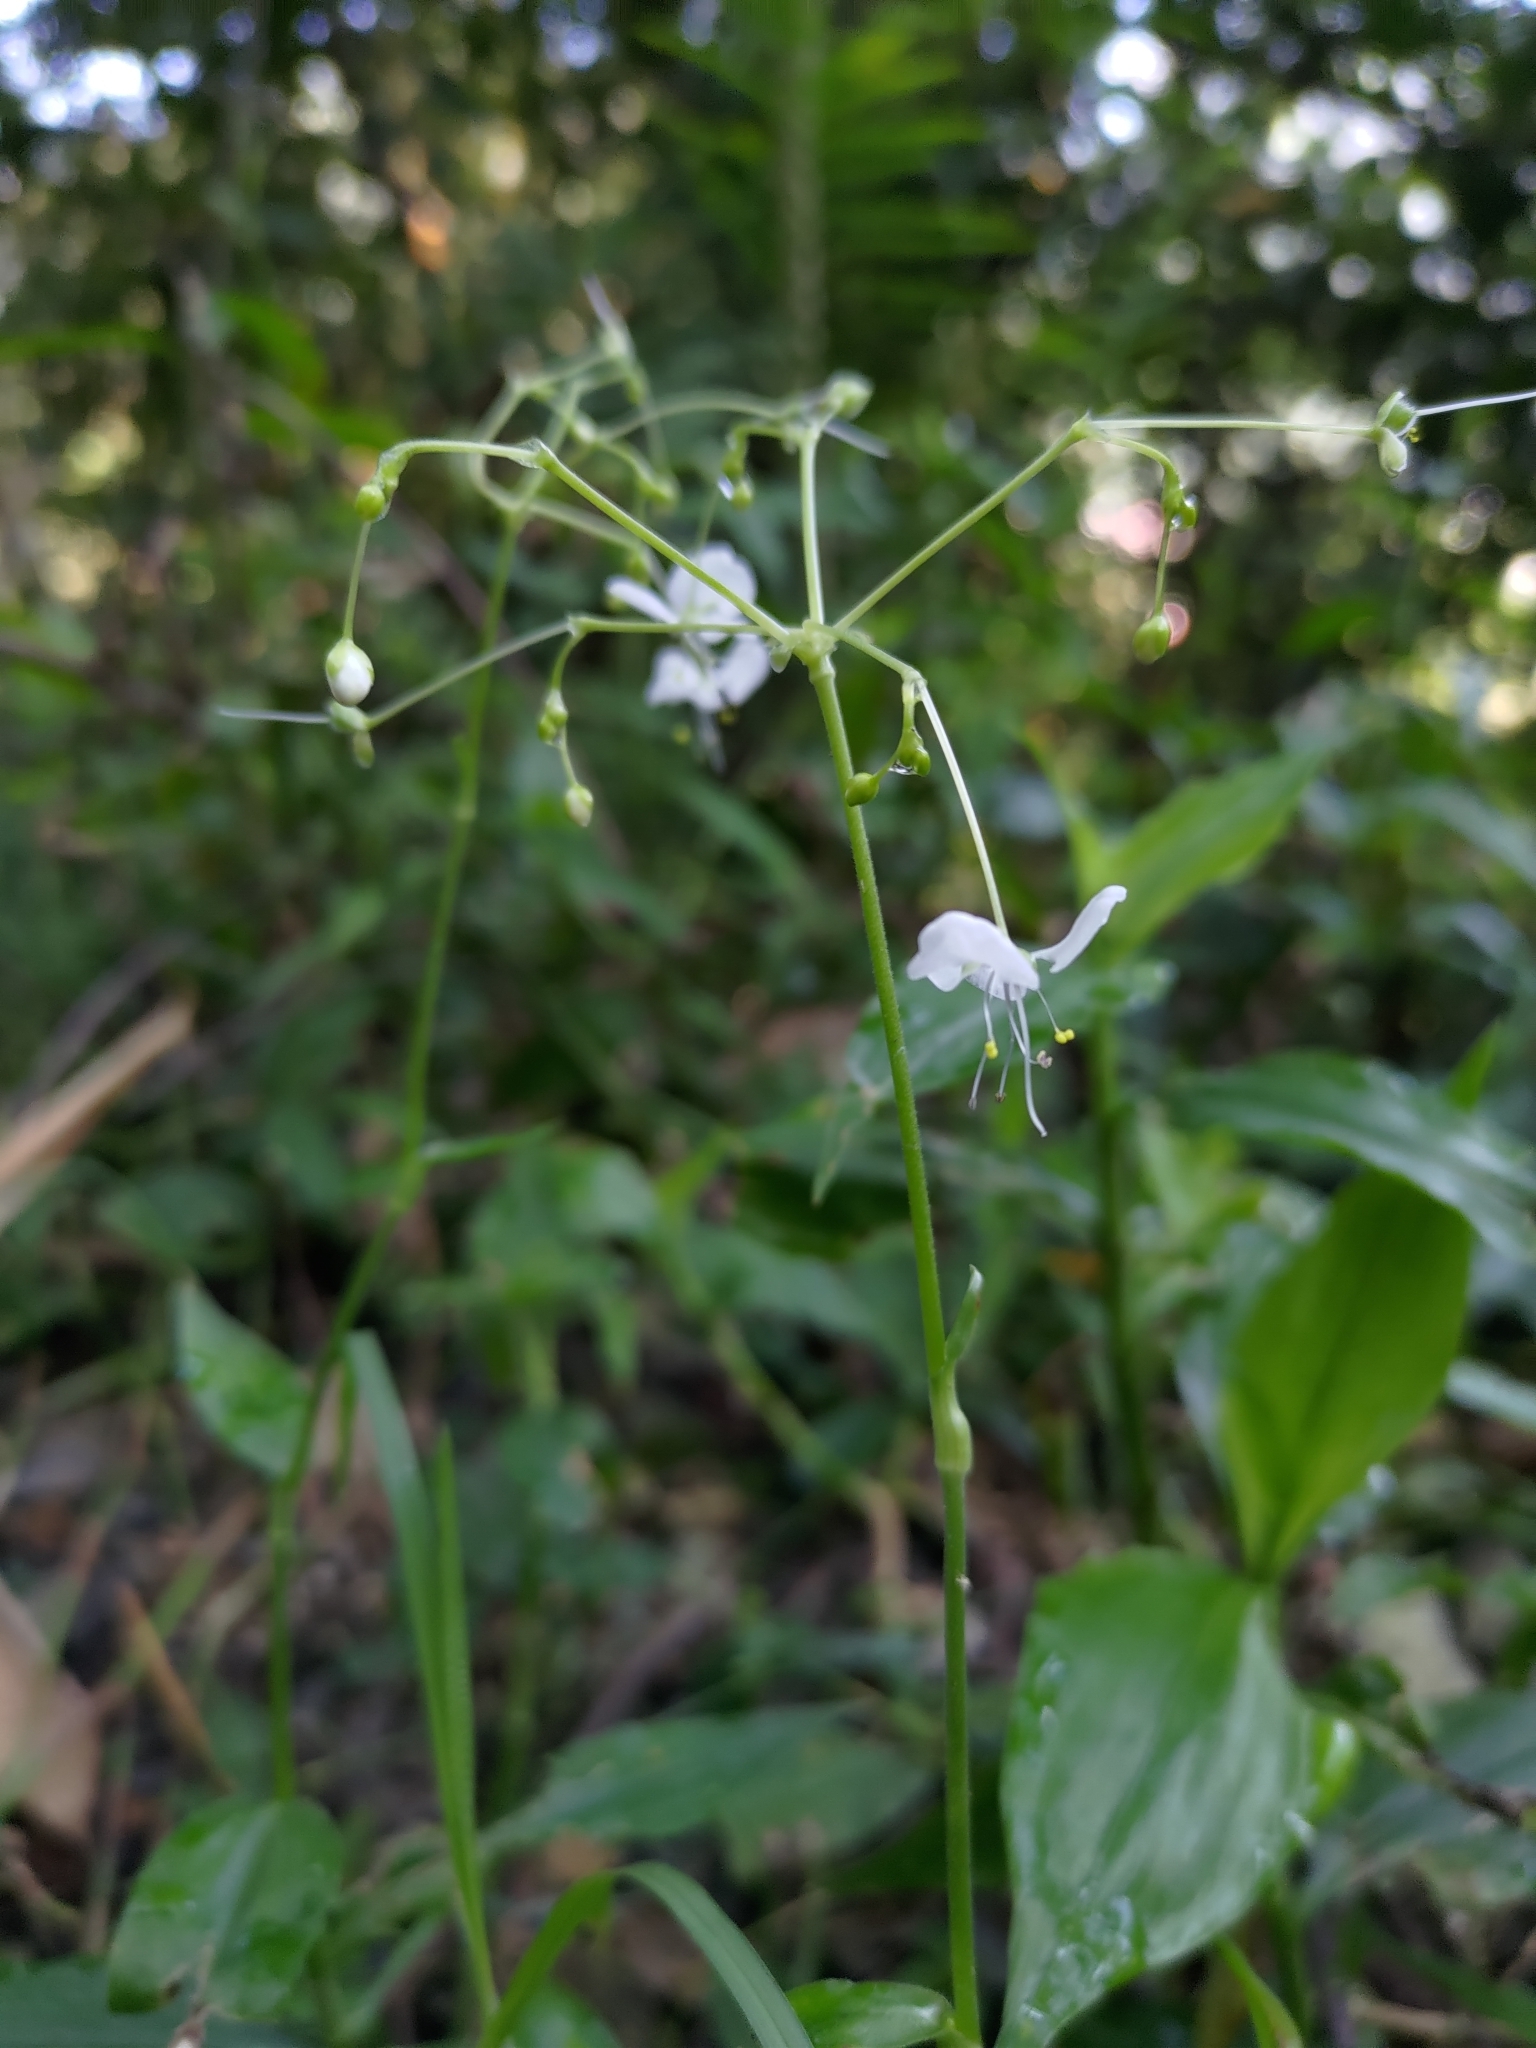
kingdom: Plantae
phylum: Tracheophyta
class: Liliopsida
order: Commelinales
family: Commelinaceae
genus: Rhopalephora
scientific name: Rhopalephora scaberrima
